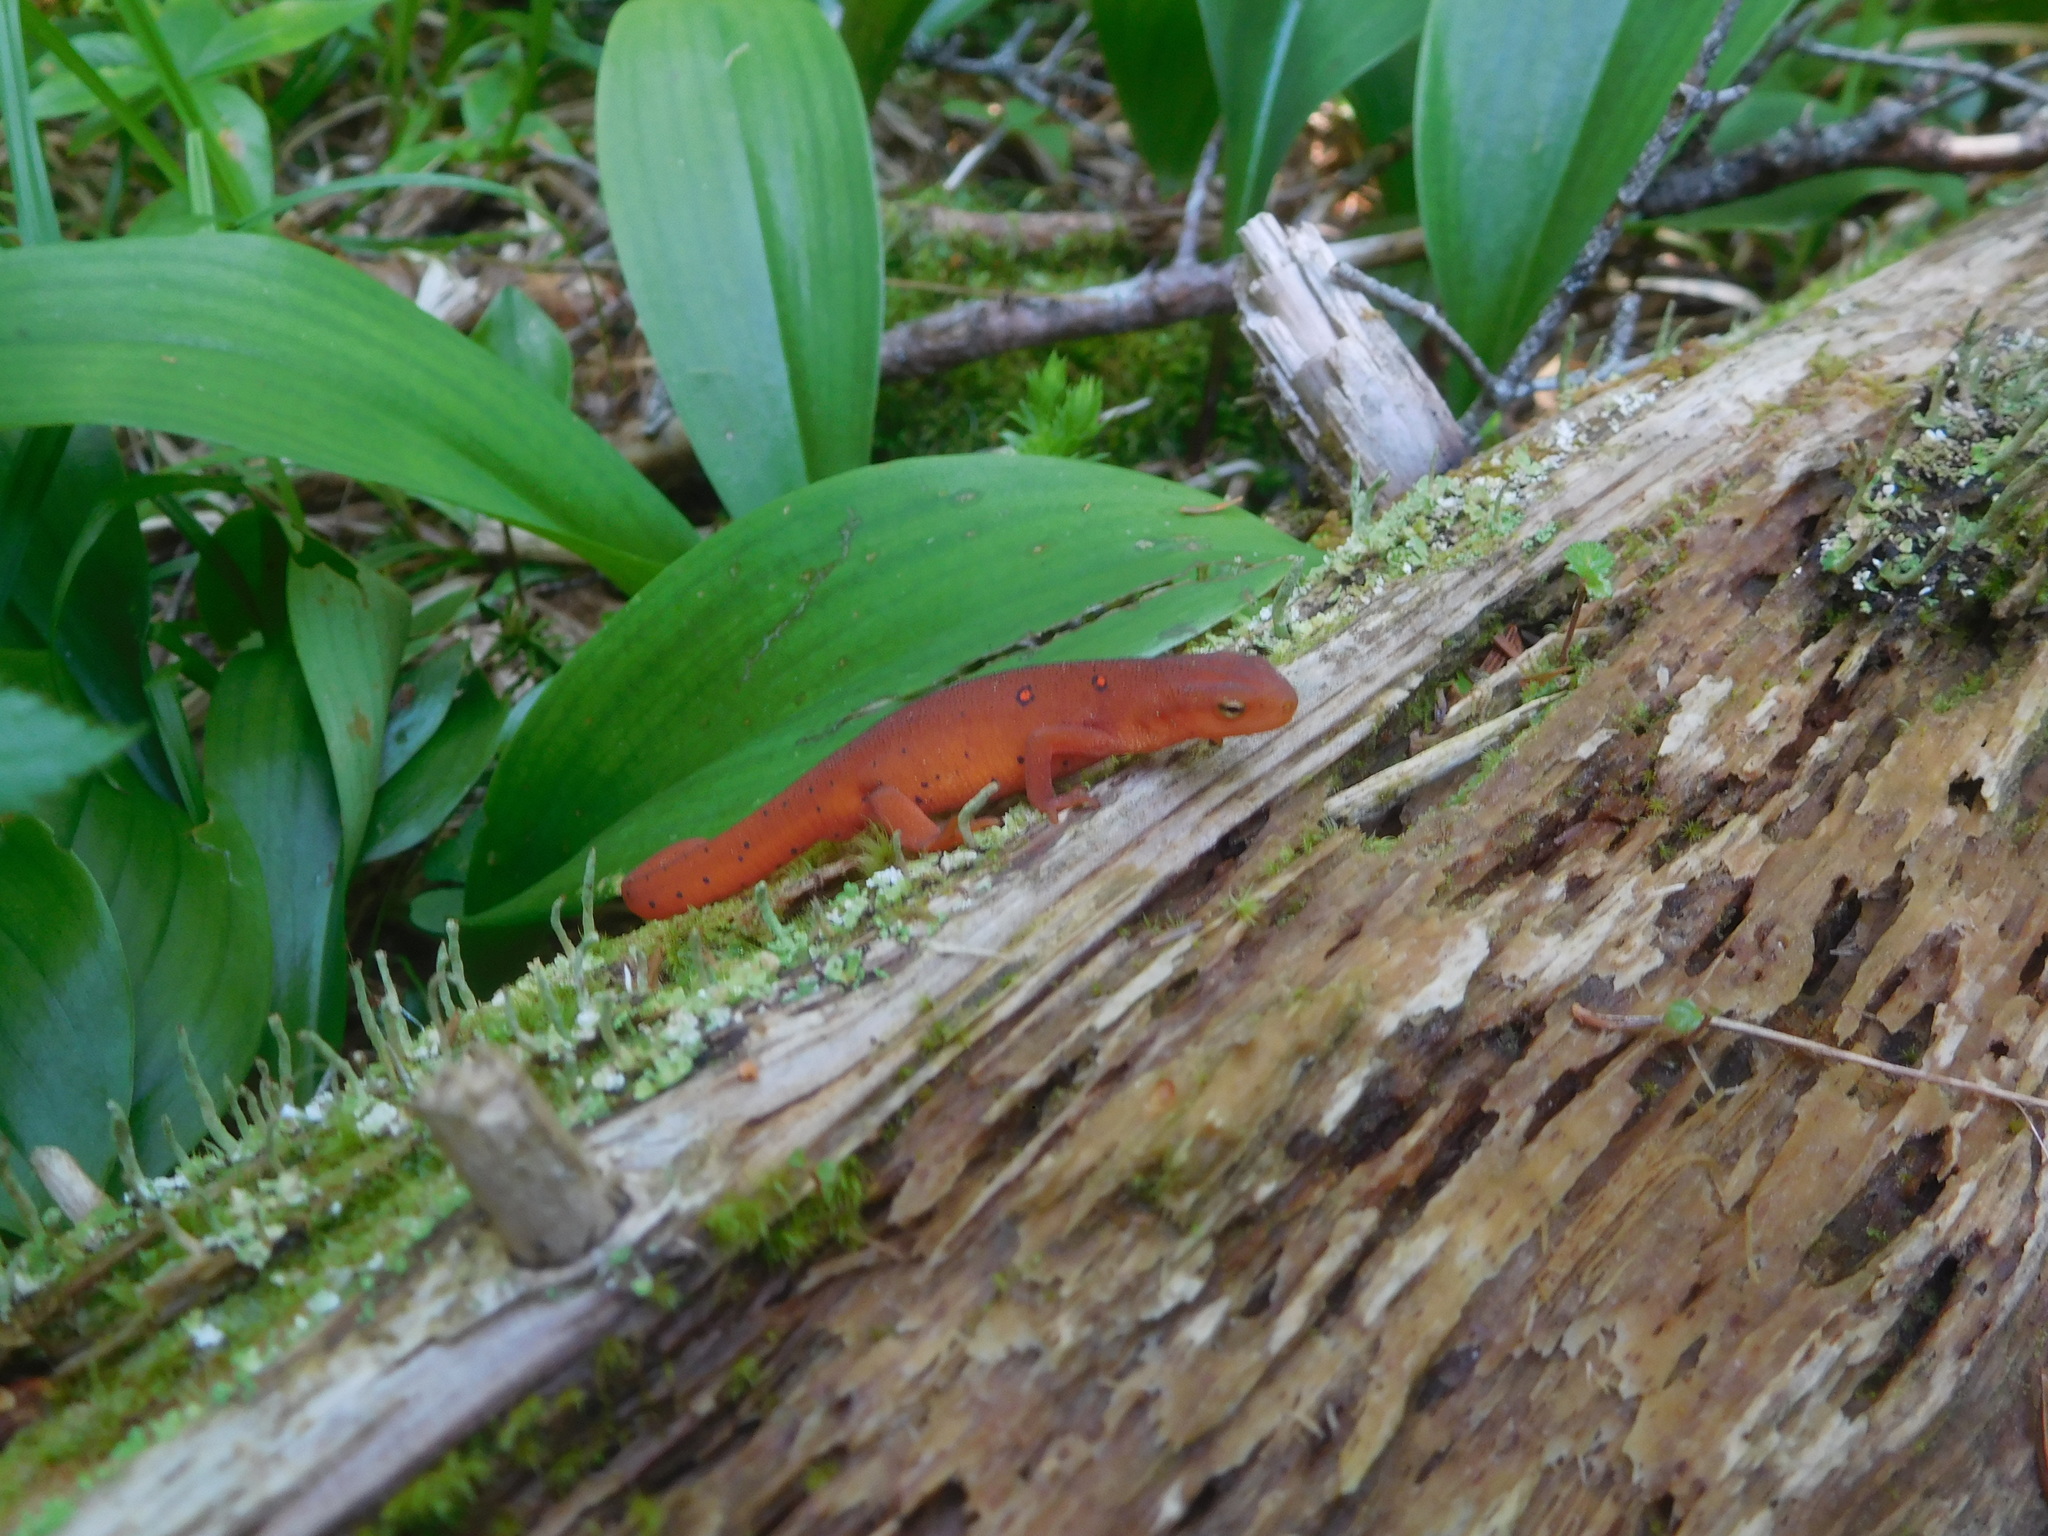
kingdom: Animalia
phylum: Chordata
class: Amphibia
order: Caudata
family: Salamandridae
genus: Notophthalmus
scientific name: Notophthalmus viridescens
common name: Eastern newt
